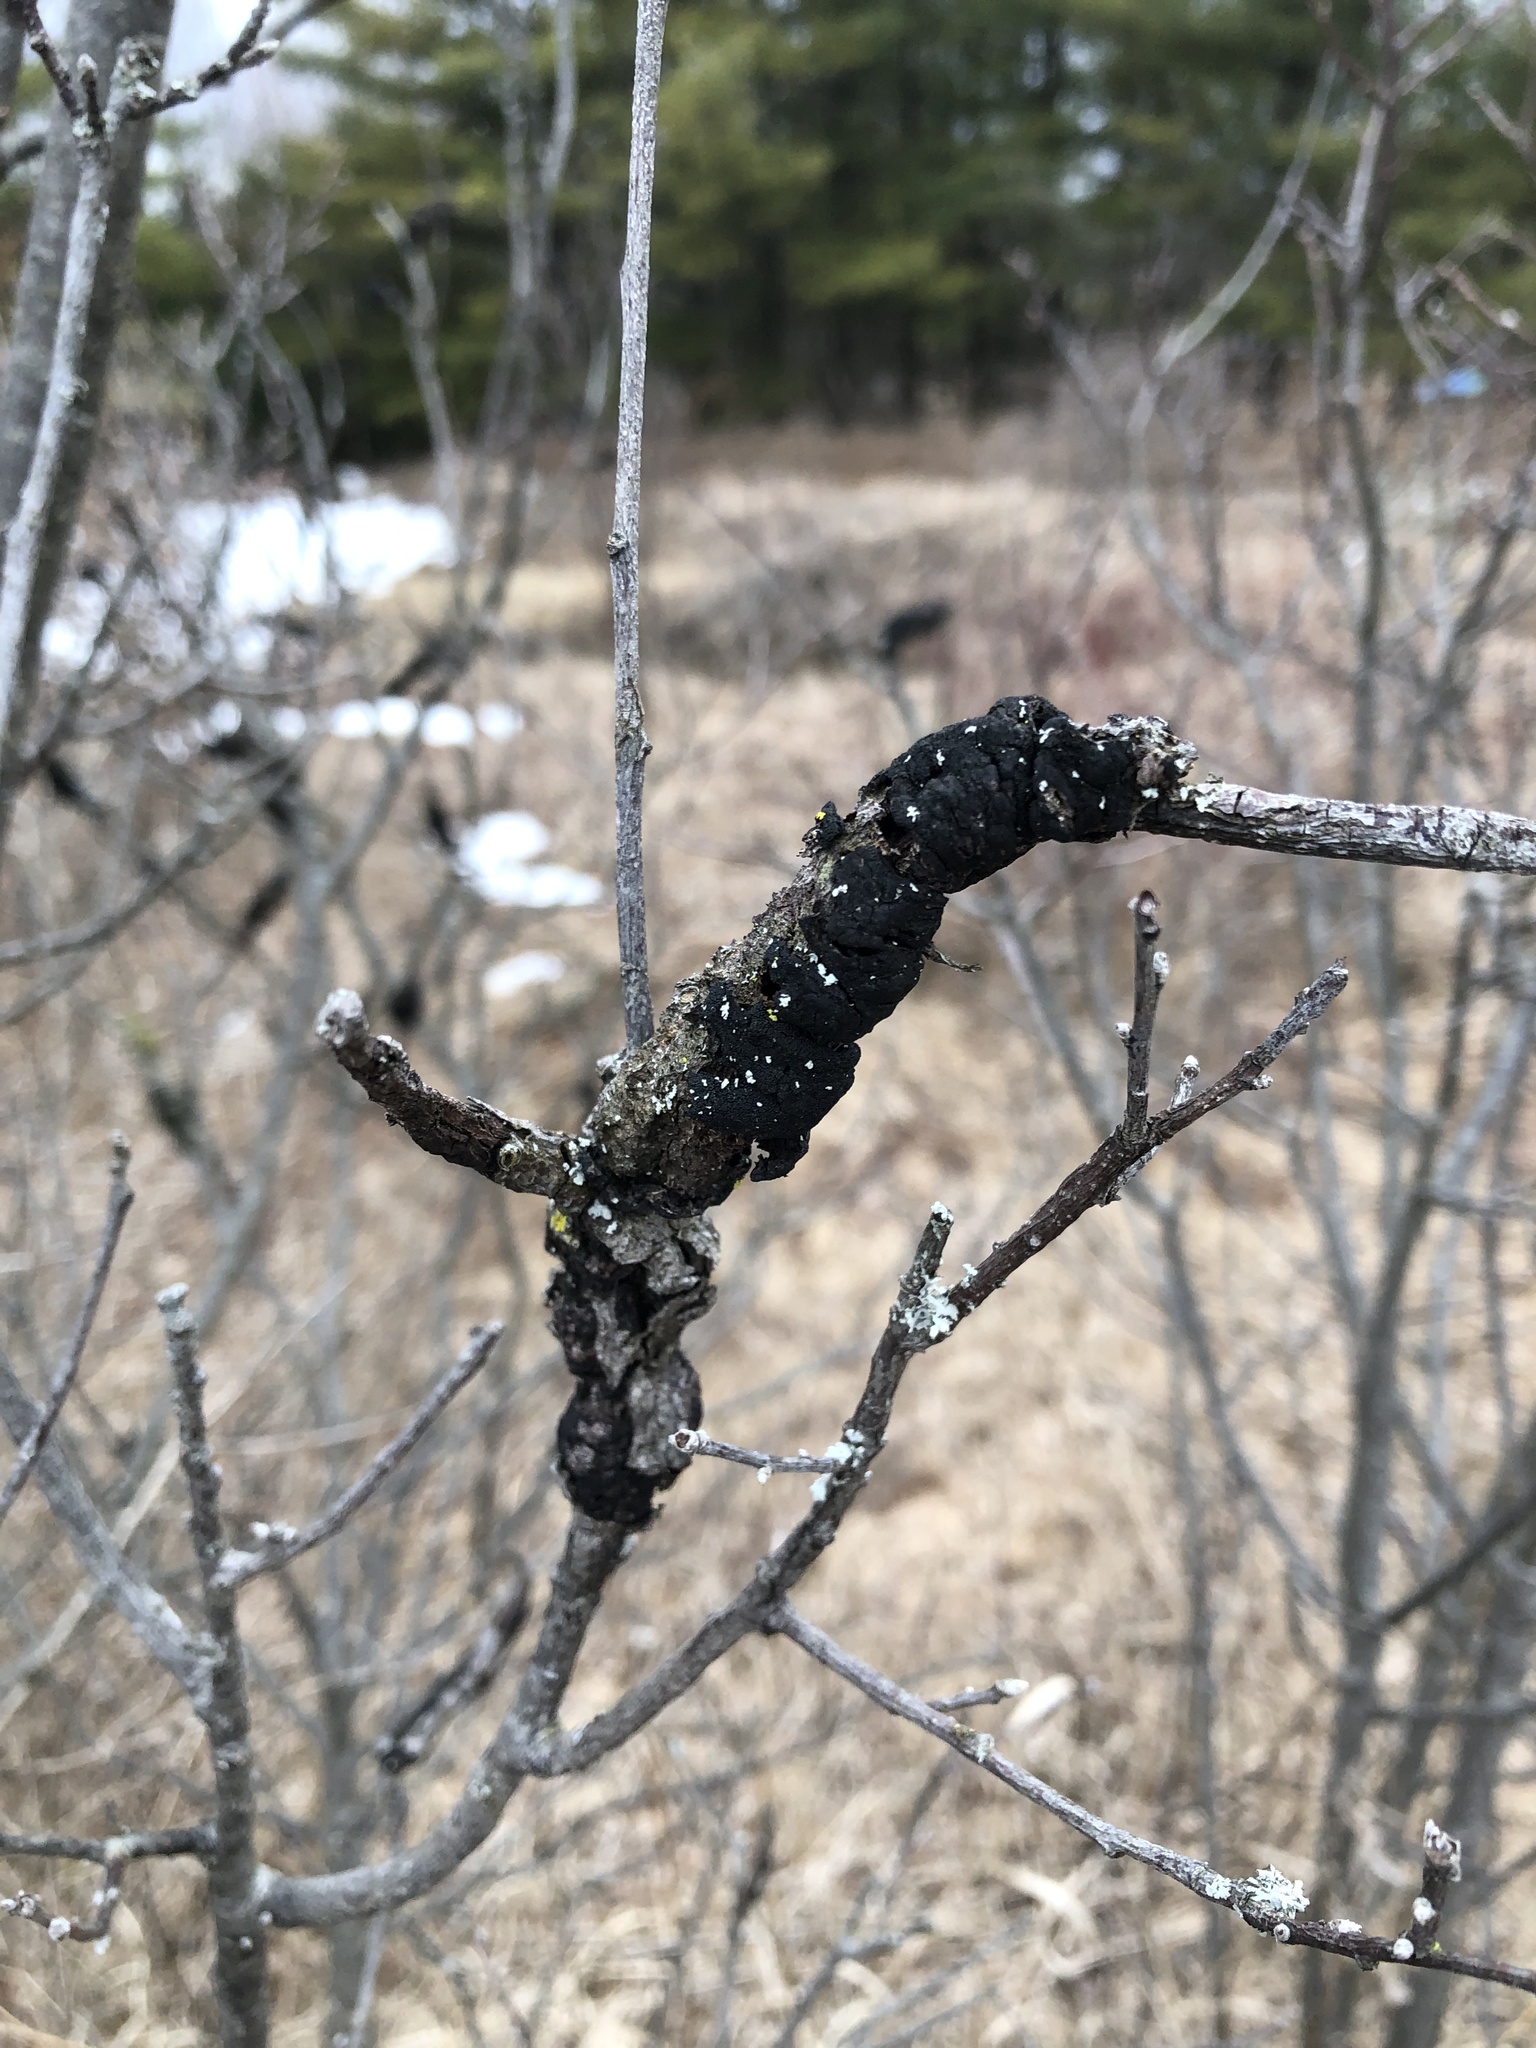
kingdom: Fungi
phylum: Ascomycota
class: Dothideomycetes
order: Venturiales
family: Venturiaceae
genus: Apiosporina
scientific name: Apiosporina morbosa
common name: Black knot
